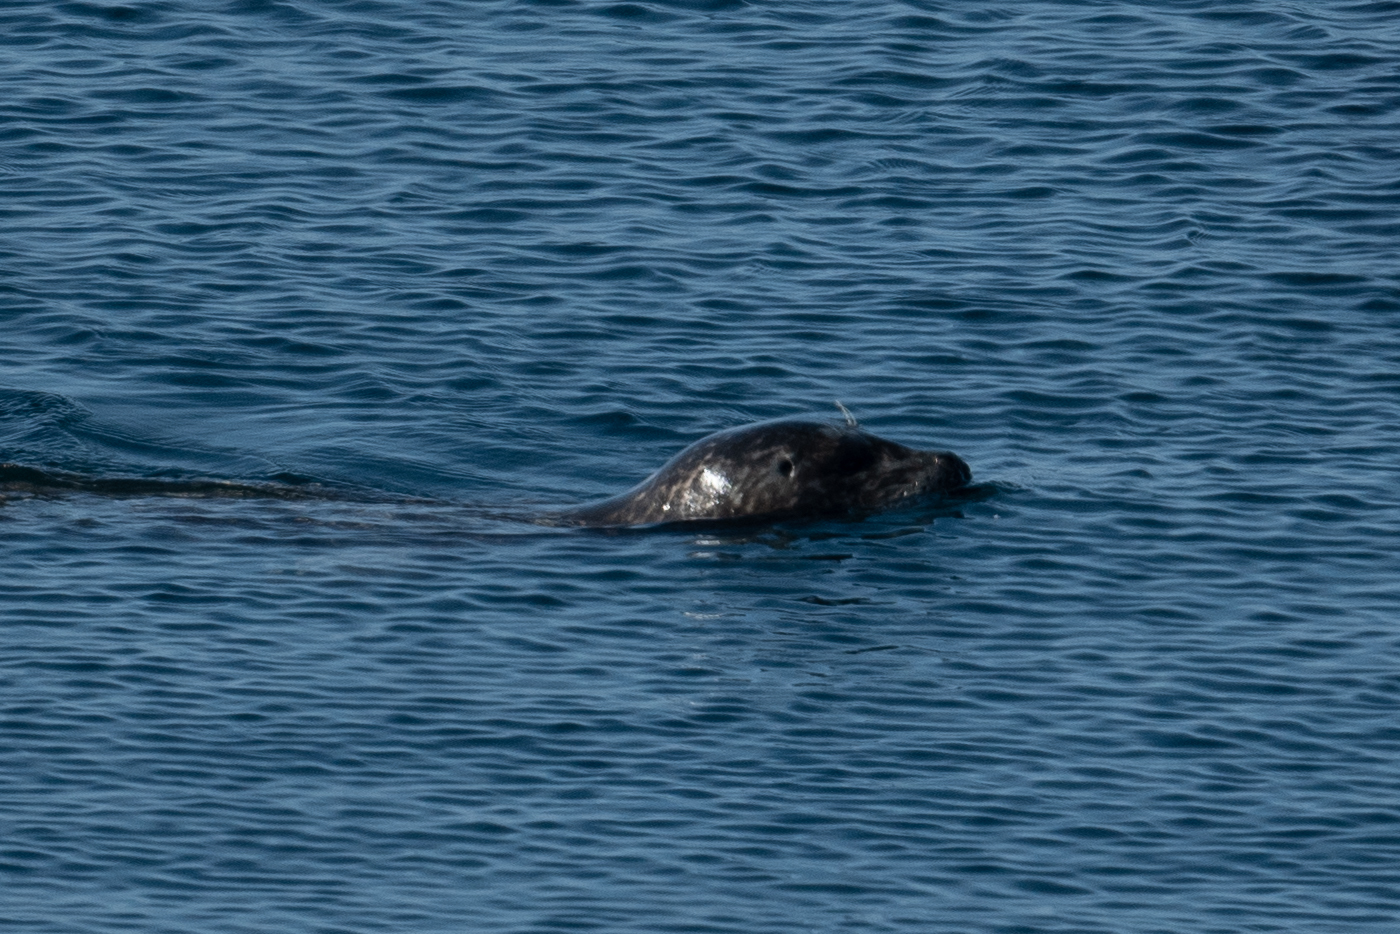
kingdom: Animalia
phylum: Chordata
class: Mammalia
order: Carnivora
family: Phocidae
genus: Phoca
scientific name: Phoca vitulina
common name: Harbor seal
